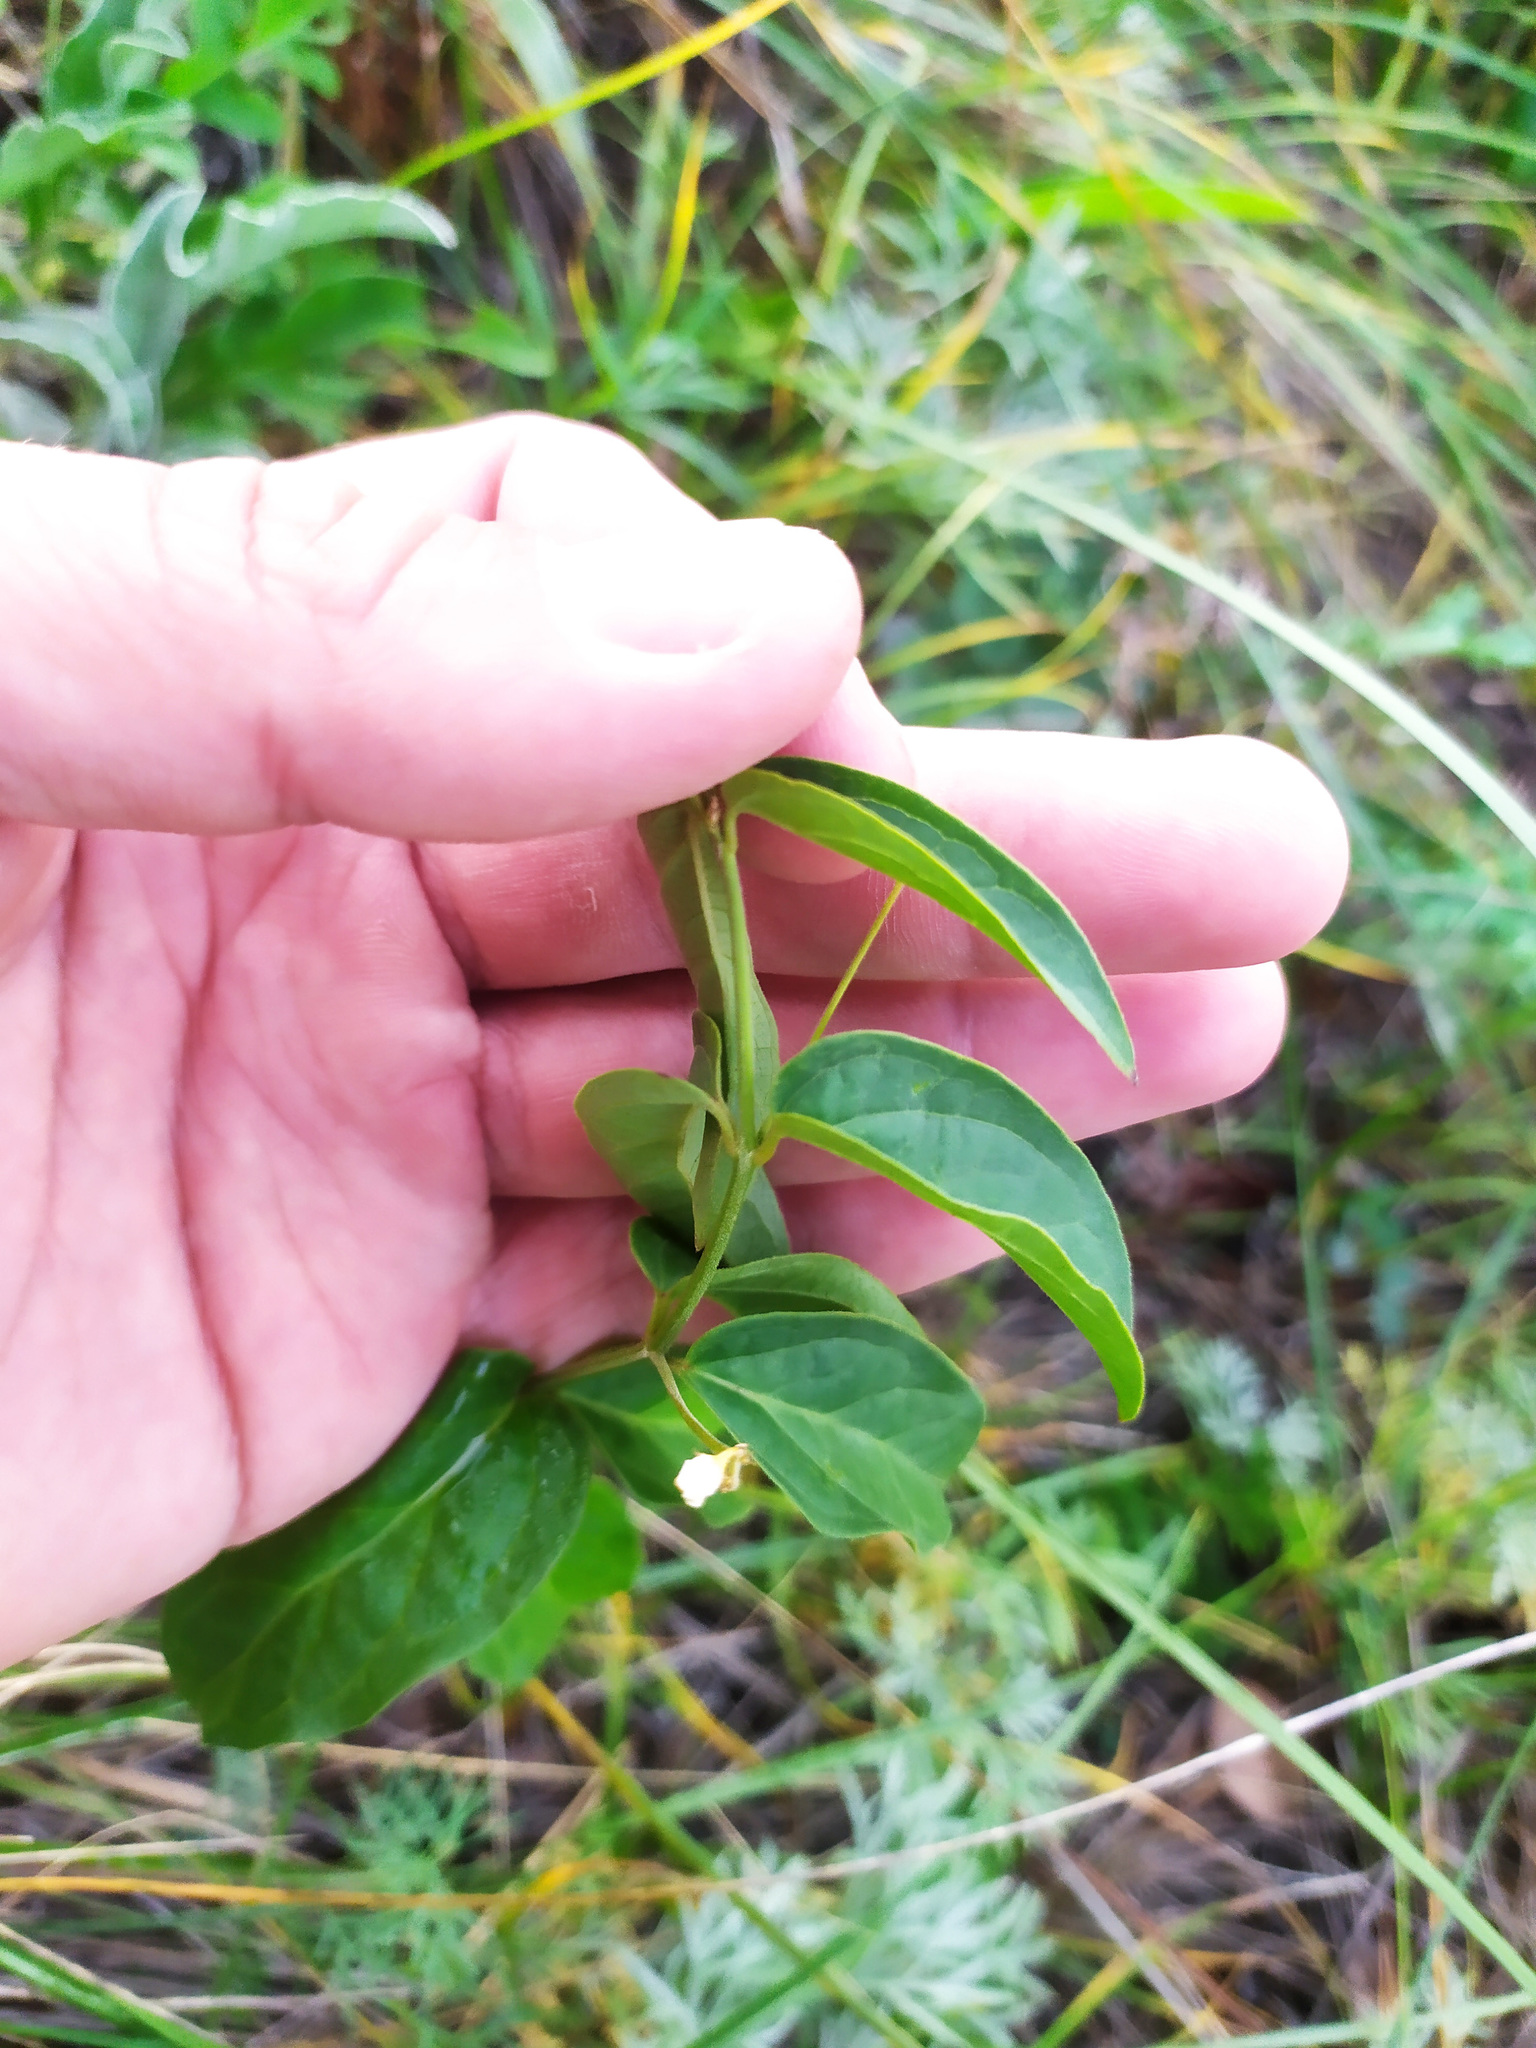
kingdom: Plantae
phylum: Tracheophyta
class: Magnoliopsida
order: Gentianales
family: Apocynaceae
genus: Vincetoxicum
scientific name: Vincetoxicum hirundinaria
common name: White swallowwort
